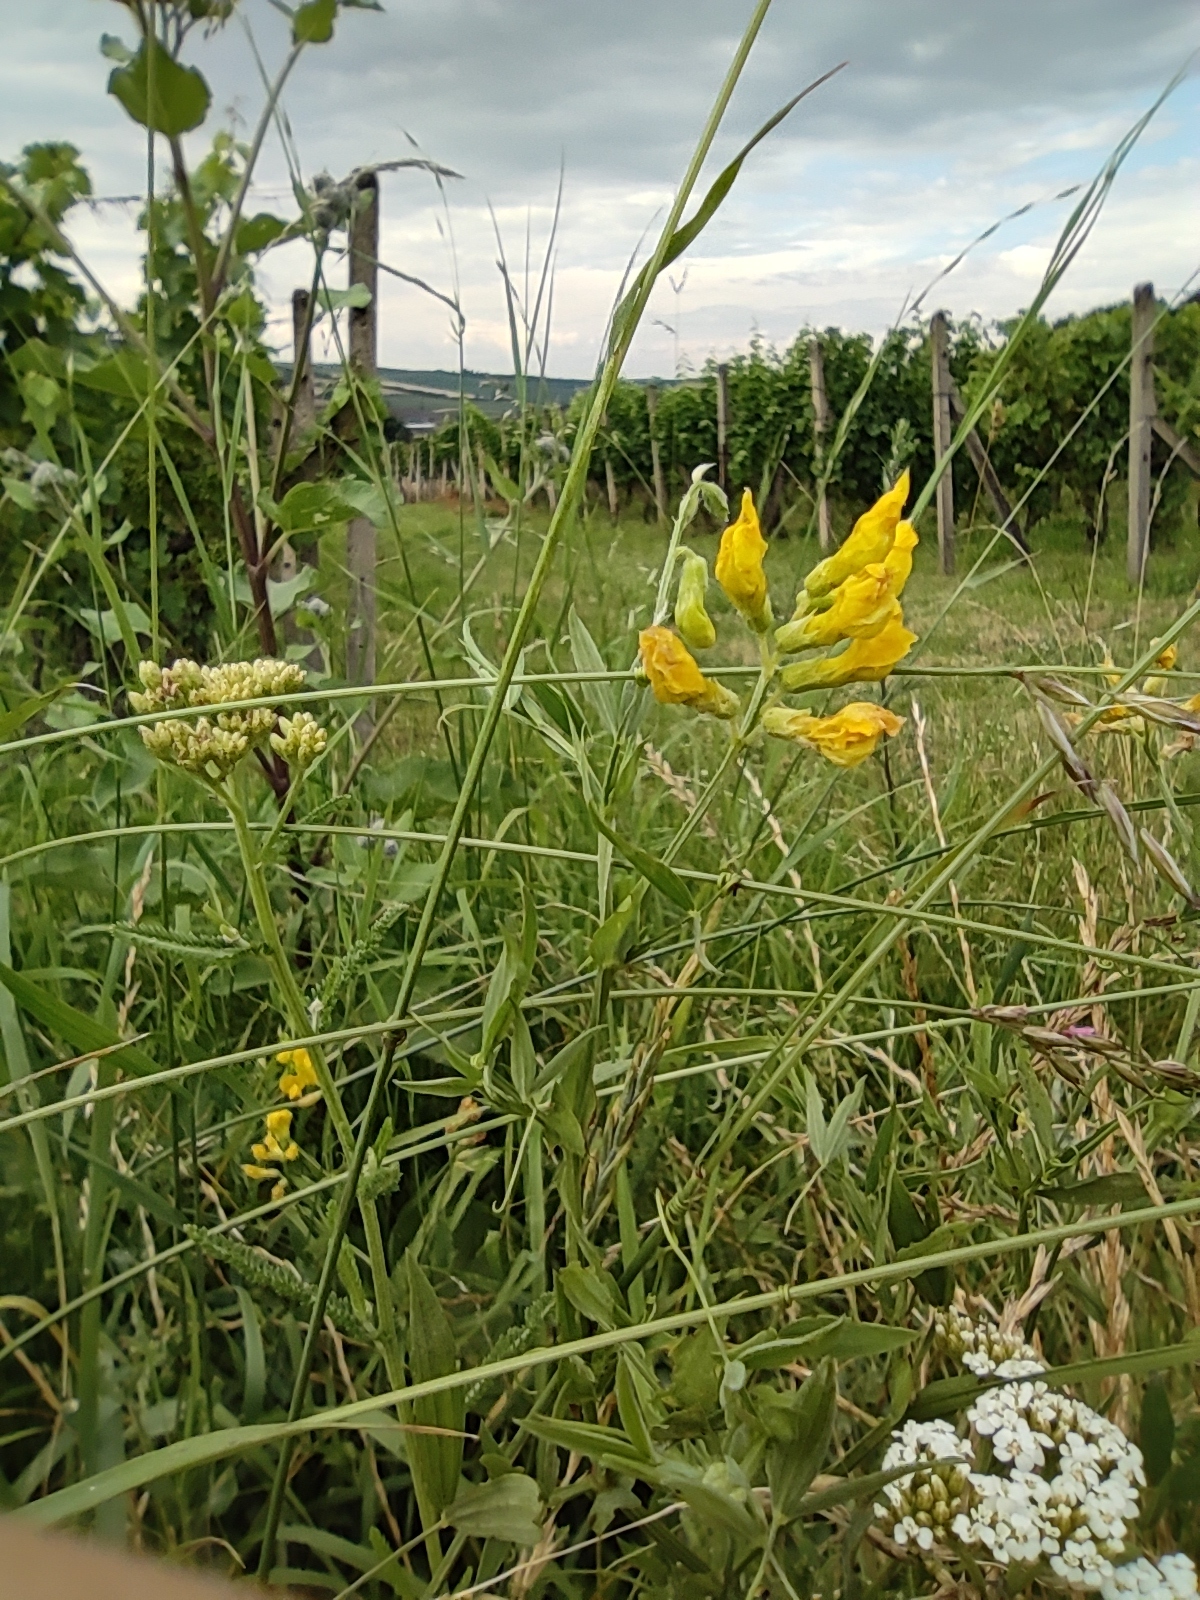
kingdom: Plantae
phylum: Tracheophyta
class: Magnoliopsida
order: Fabales
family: Fabaceae
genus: Lathyrus
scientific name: Lathyrus pratensis
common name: Meadow vetchling
